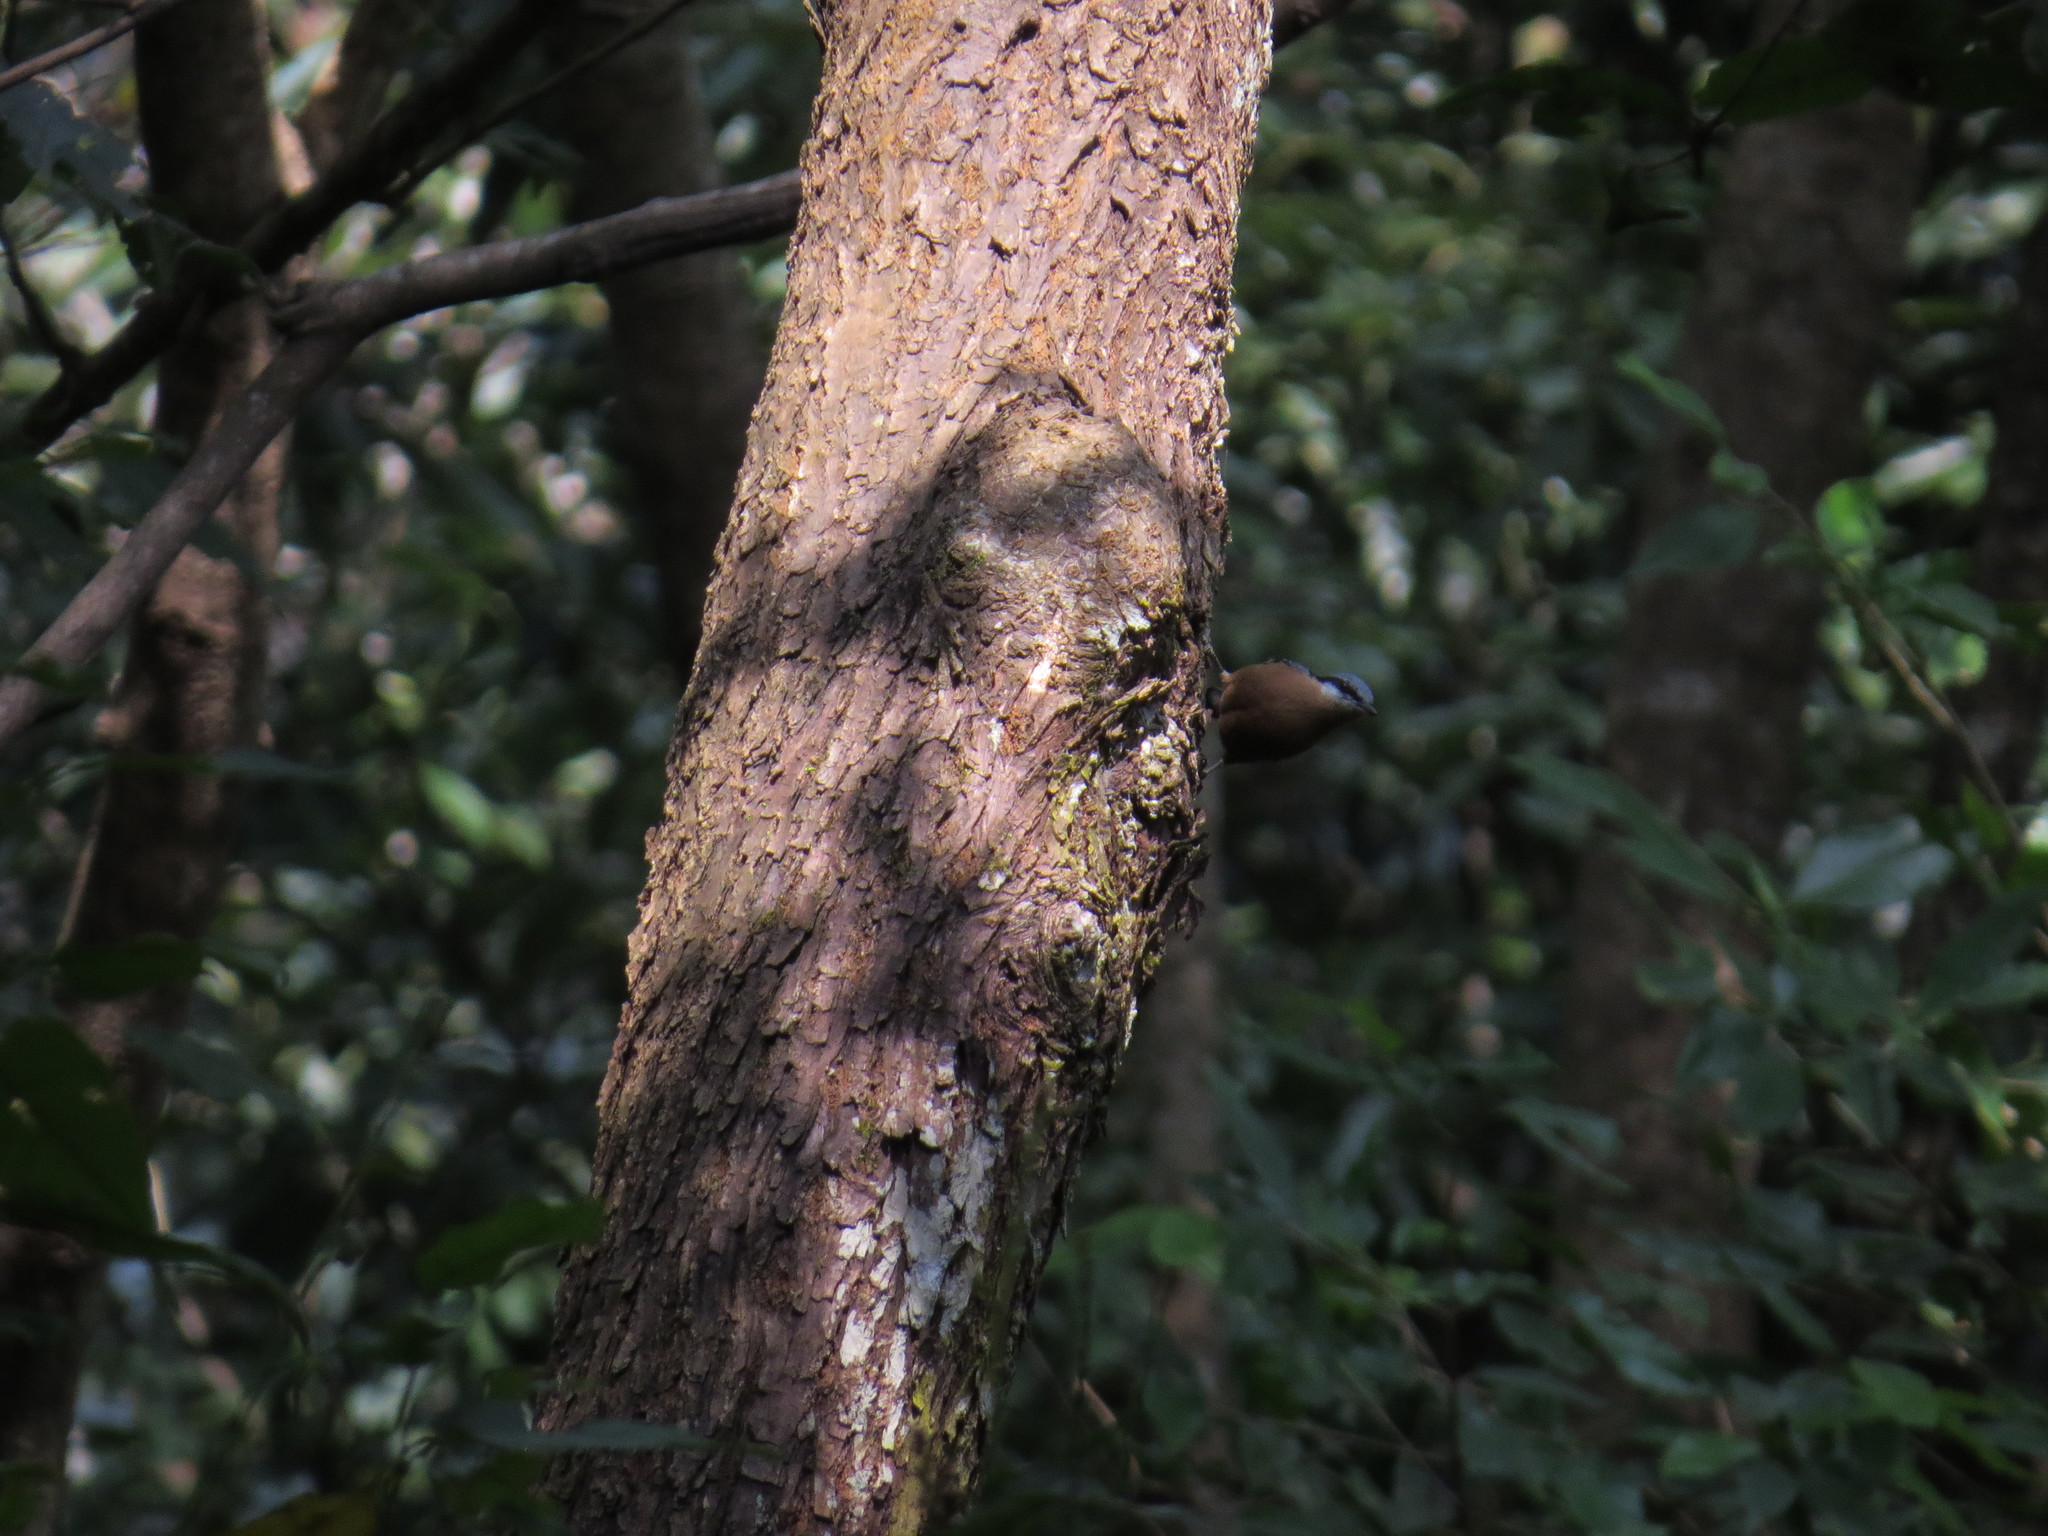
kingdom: Animalia
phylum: Chordata
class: Aves
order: Passeriformes
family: Sittidae
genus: Sitta
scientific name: Sitta cinnamoventris
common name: Chestnut-bellied nuthatch
